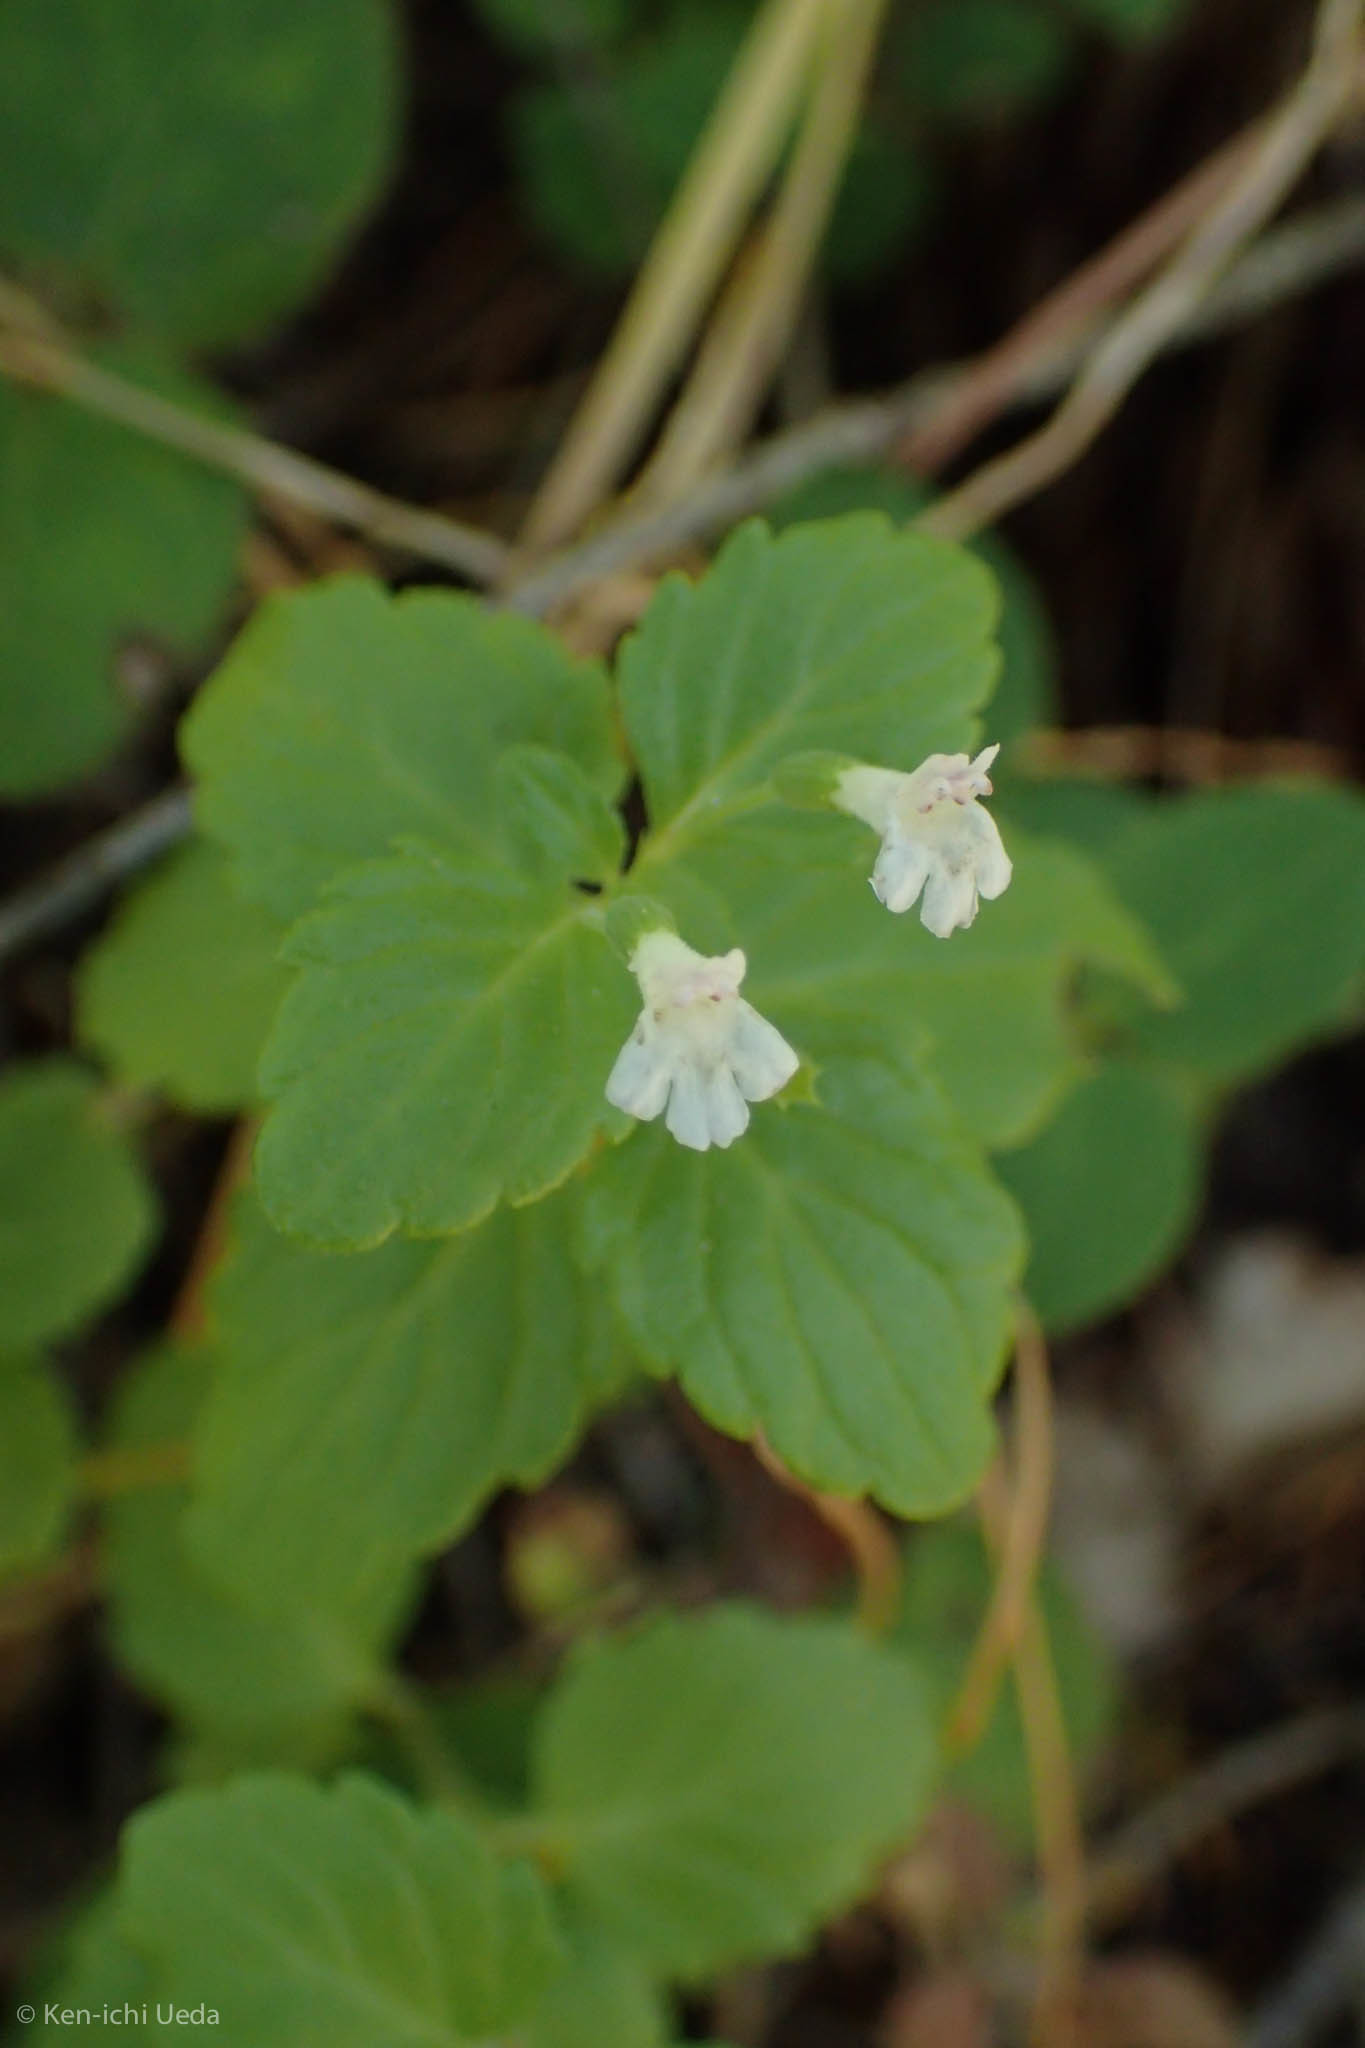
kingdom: Plantae
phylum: Tracheophyta
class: Magnoliopsida
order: Lamiales
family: Lamiaceae
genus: Micromeria
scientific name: Micromeria douglasii
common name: Yerba buena
